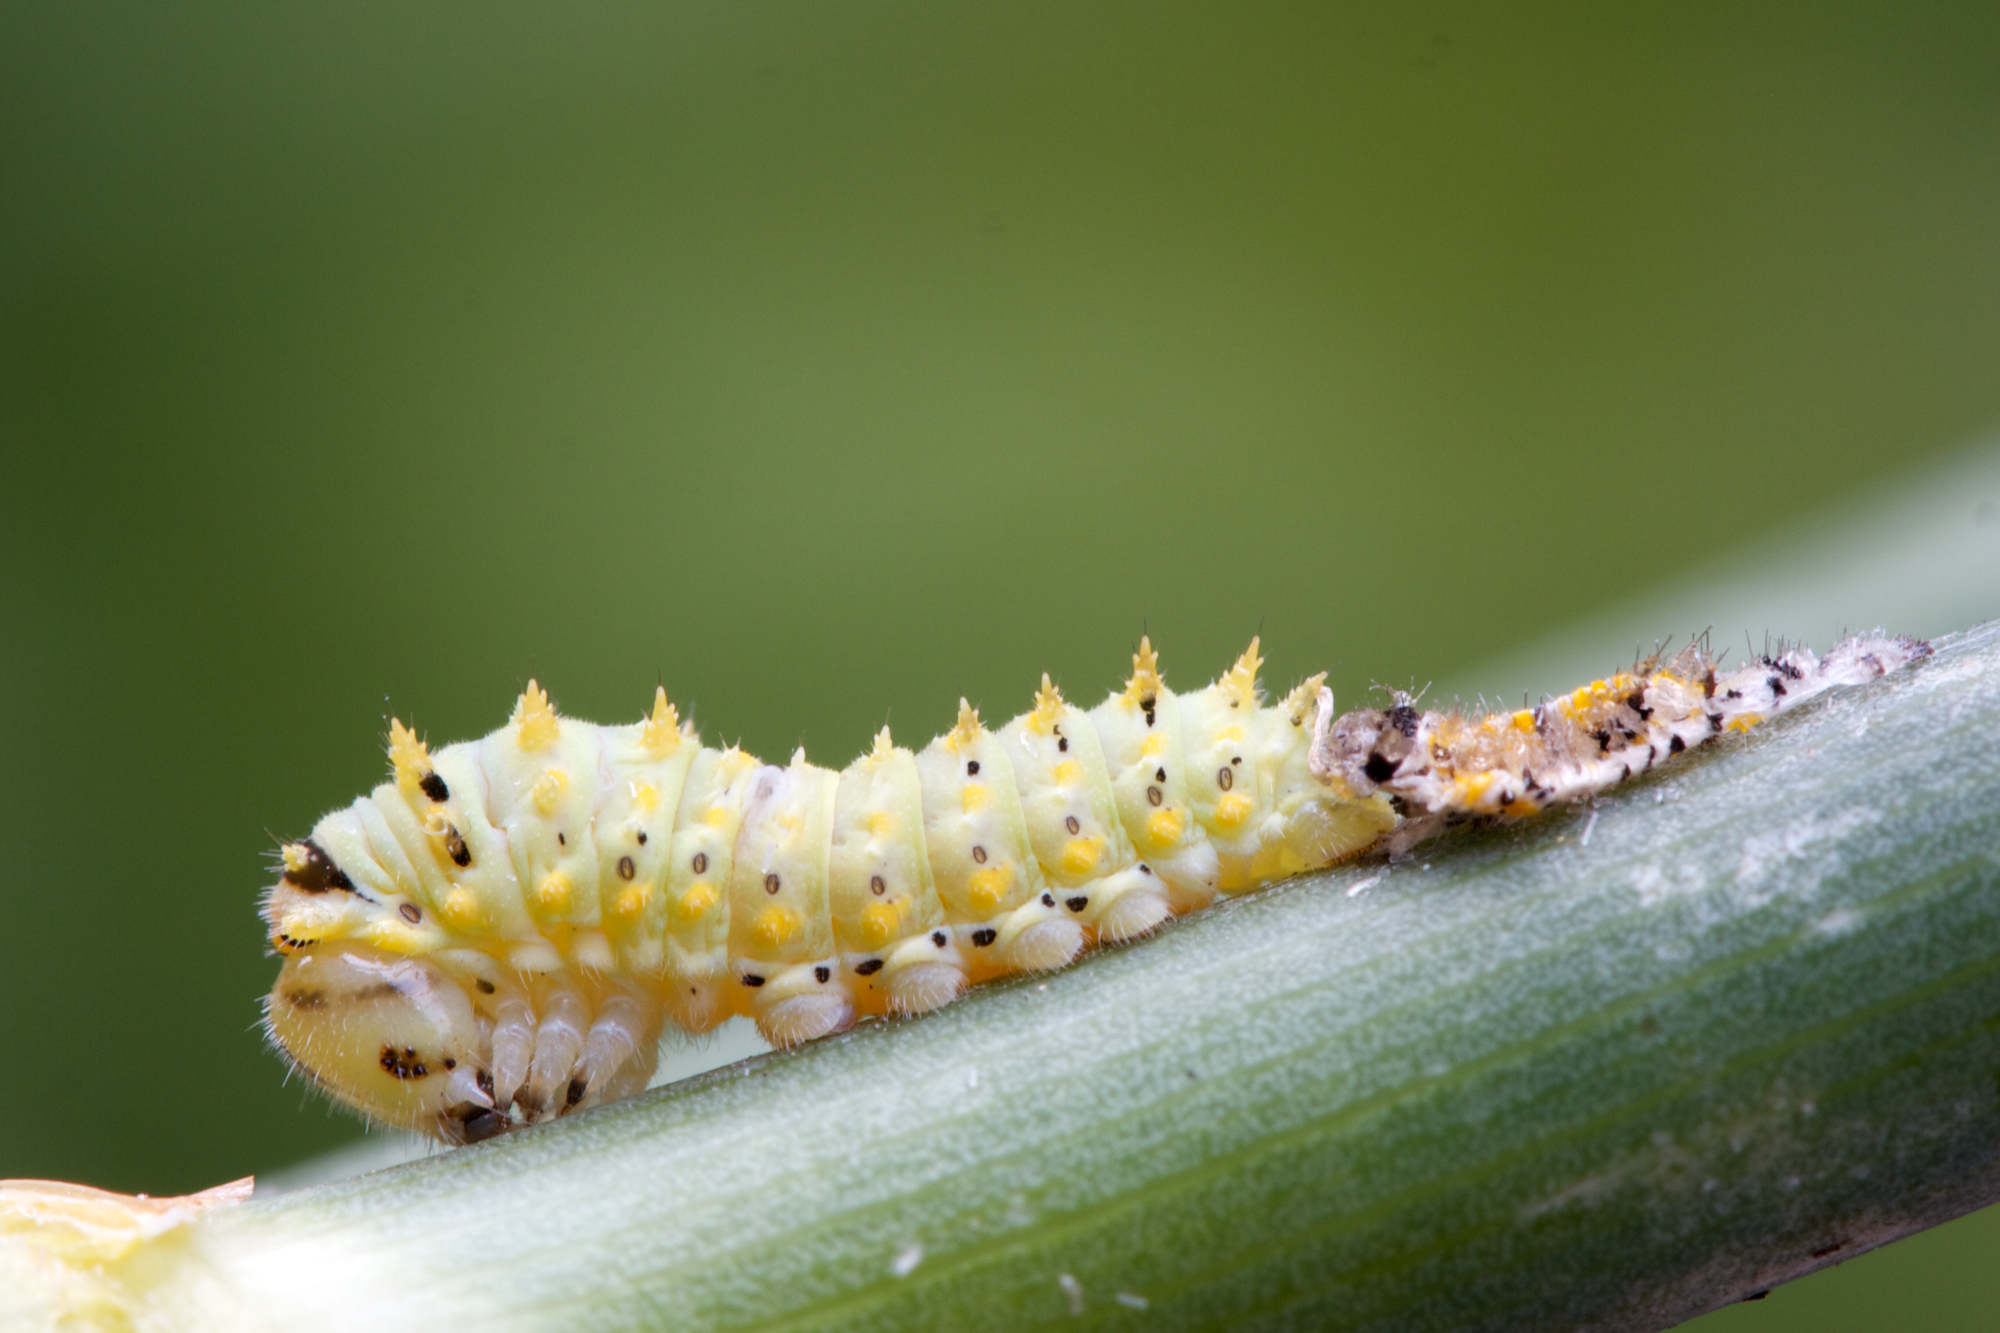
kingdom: Animalia
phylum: Arthropoda
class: Insecta
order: Lepidoptera
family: Papilionidae
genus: Papilio
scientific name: Papilio machaon
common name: Swallowtail
